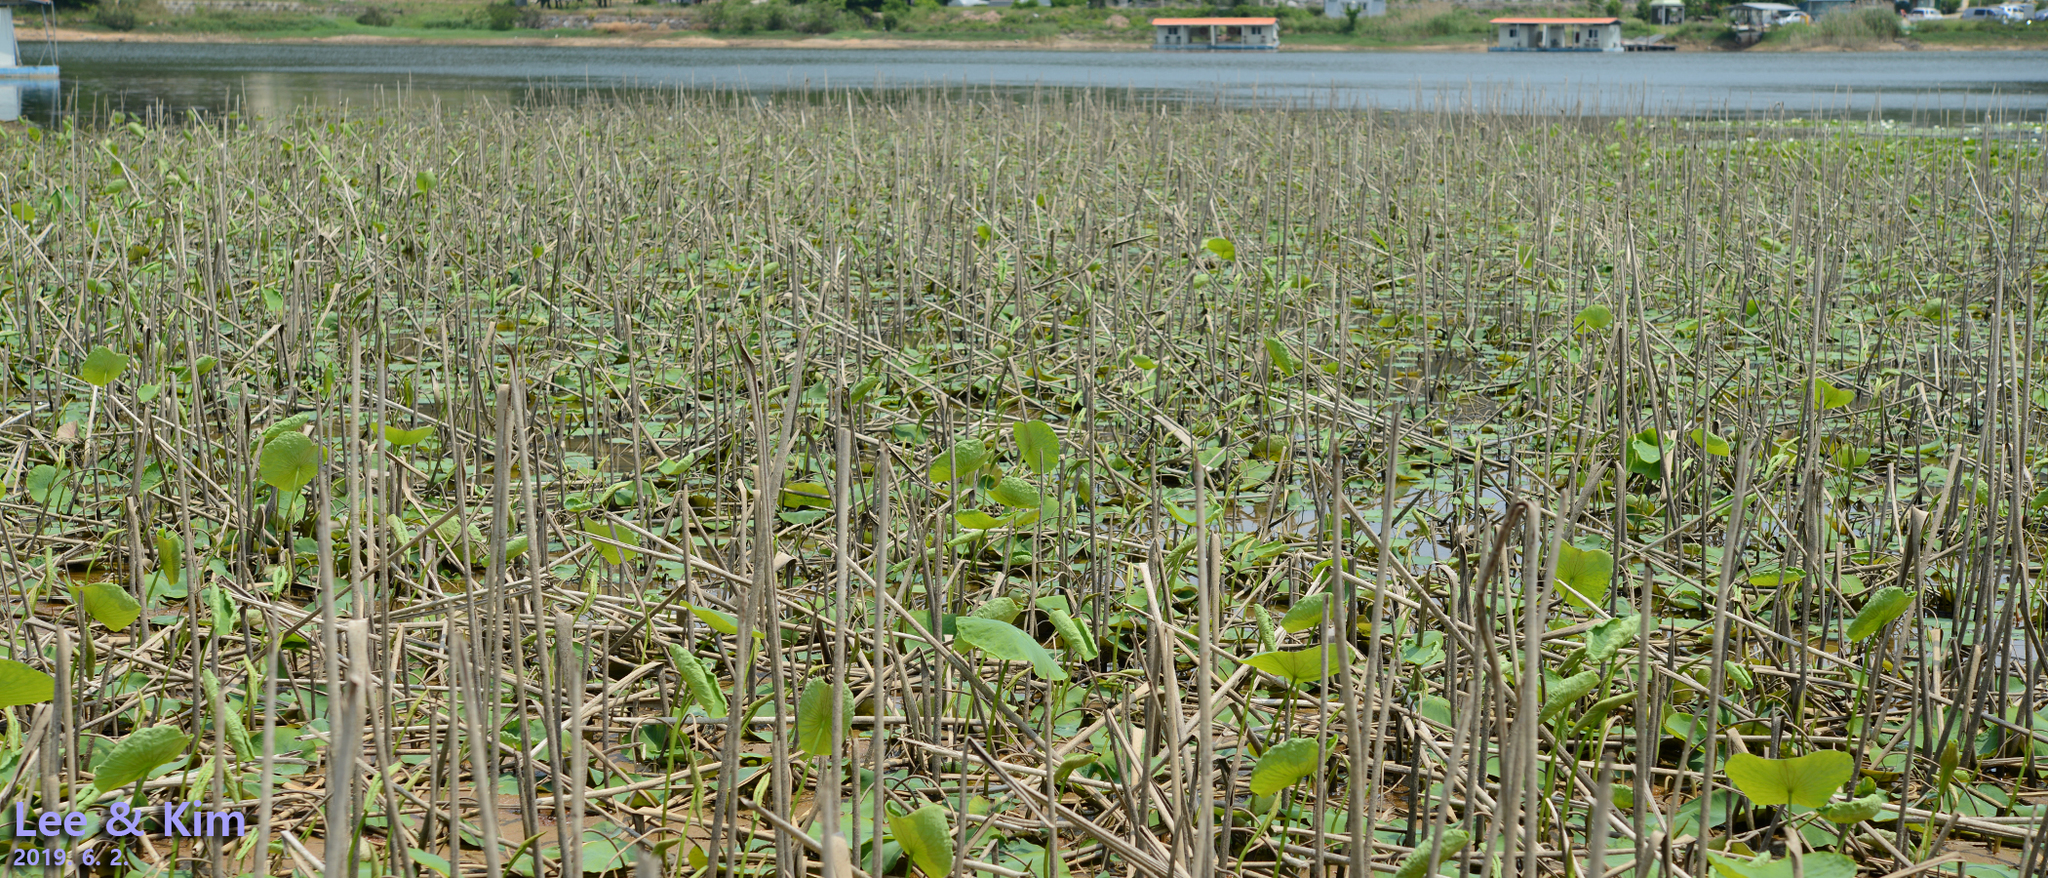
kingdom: Plantae
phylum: Tracheophyta
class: Magnoliopsida
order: Proteales
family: Nelumbonaceae
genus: Nelumbo
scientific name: Nelumbo nucifera
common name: Sacred lotus
